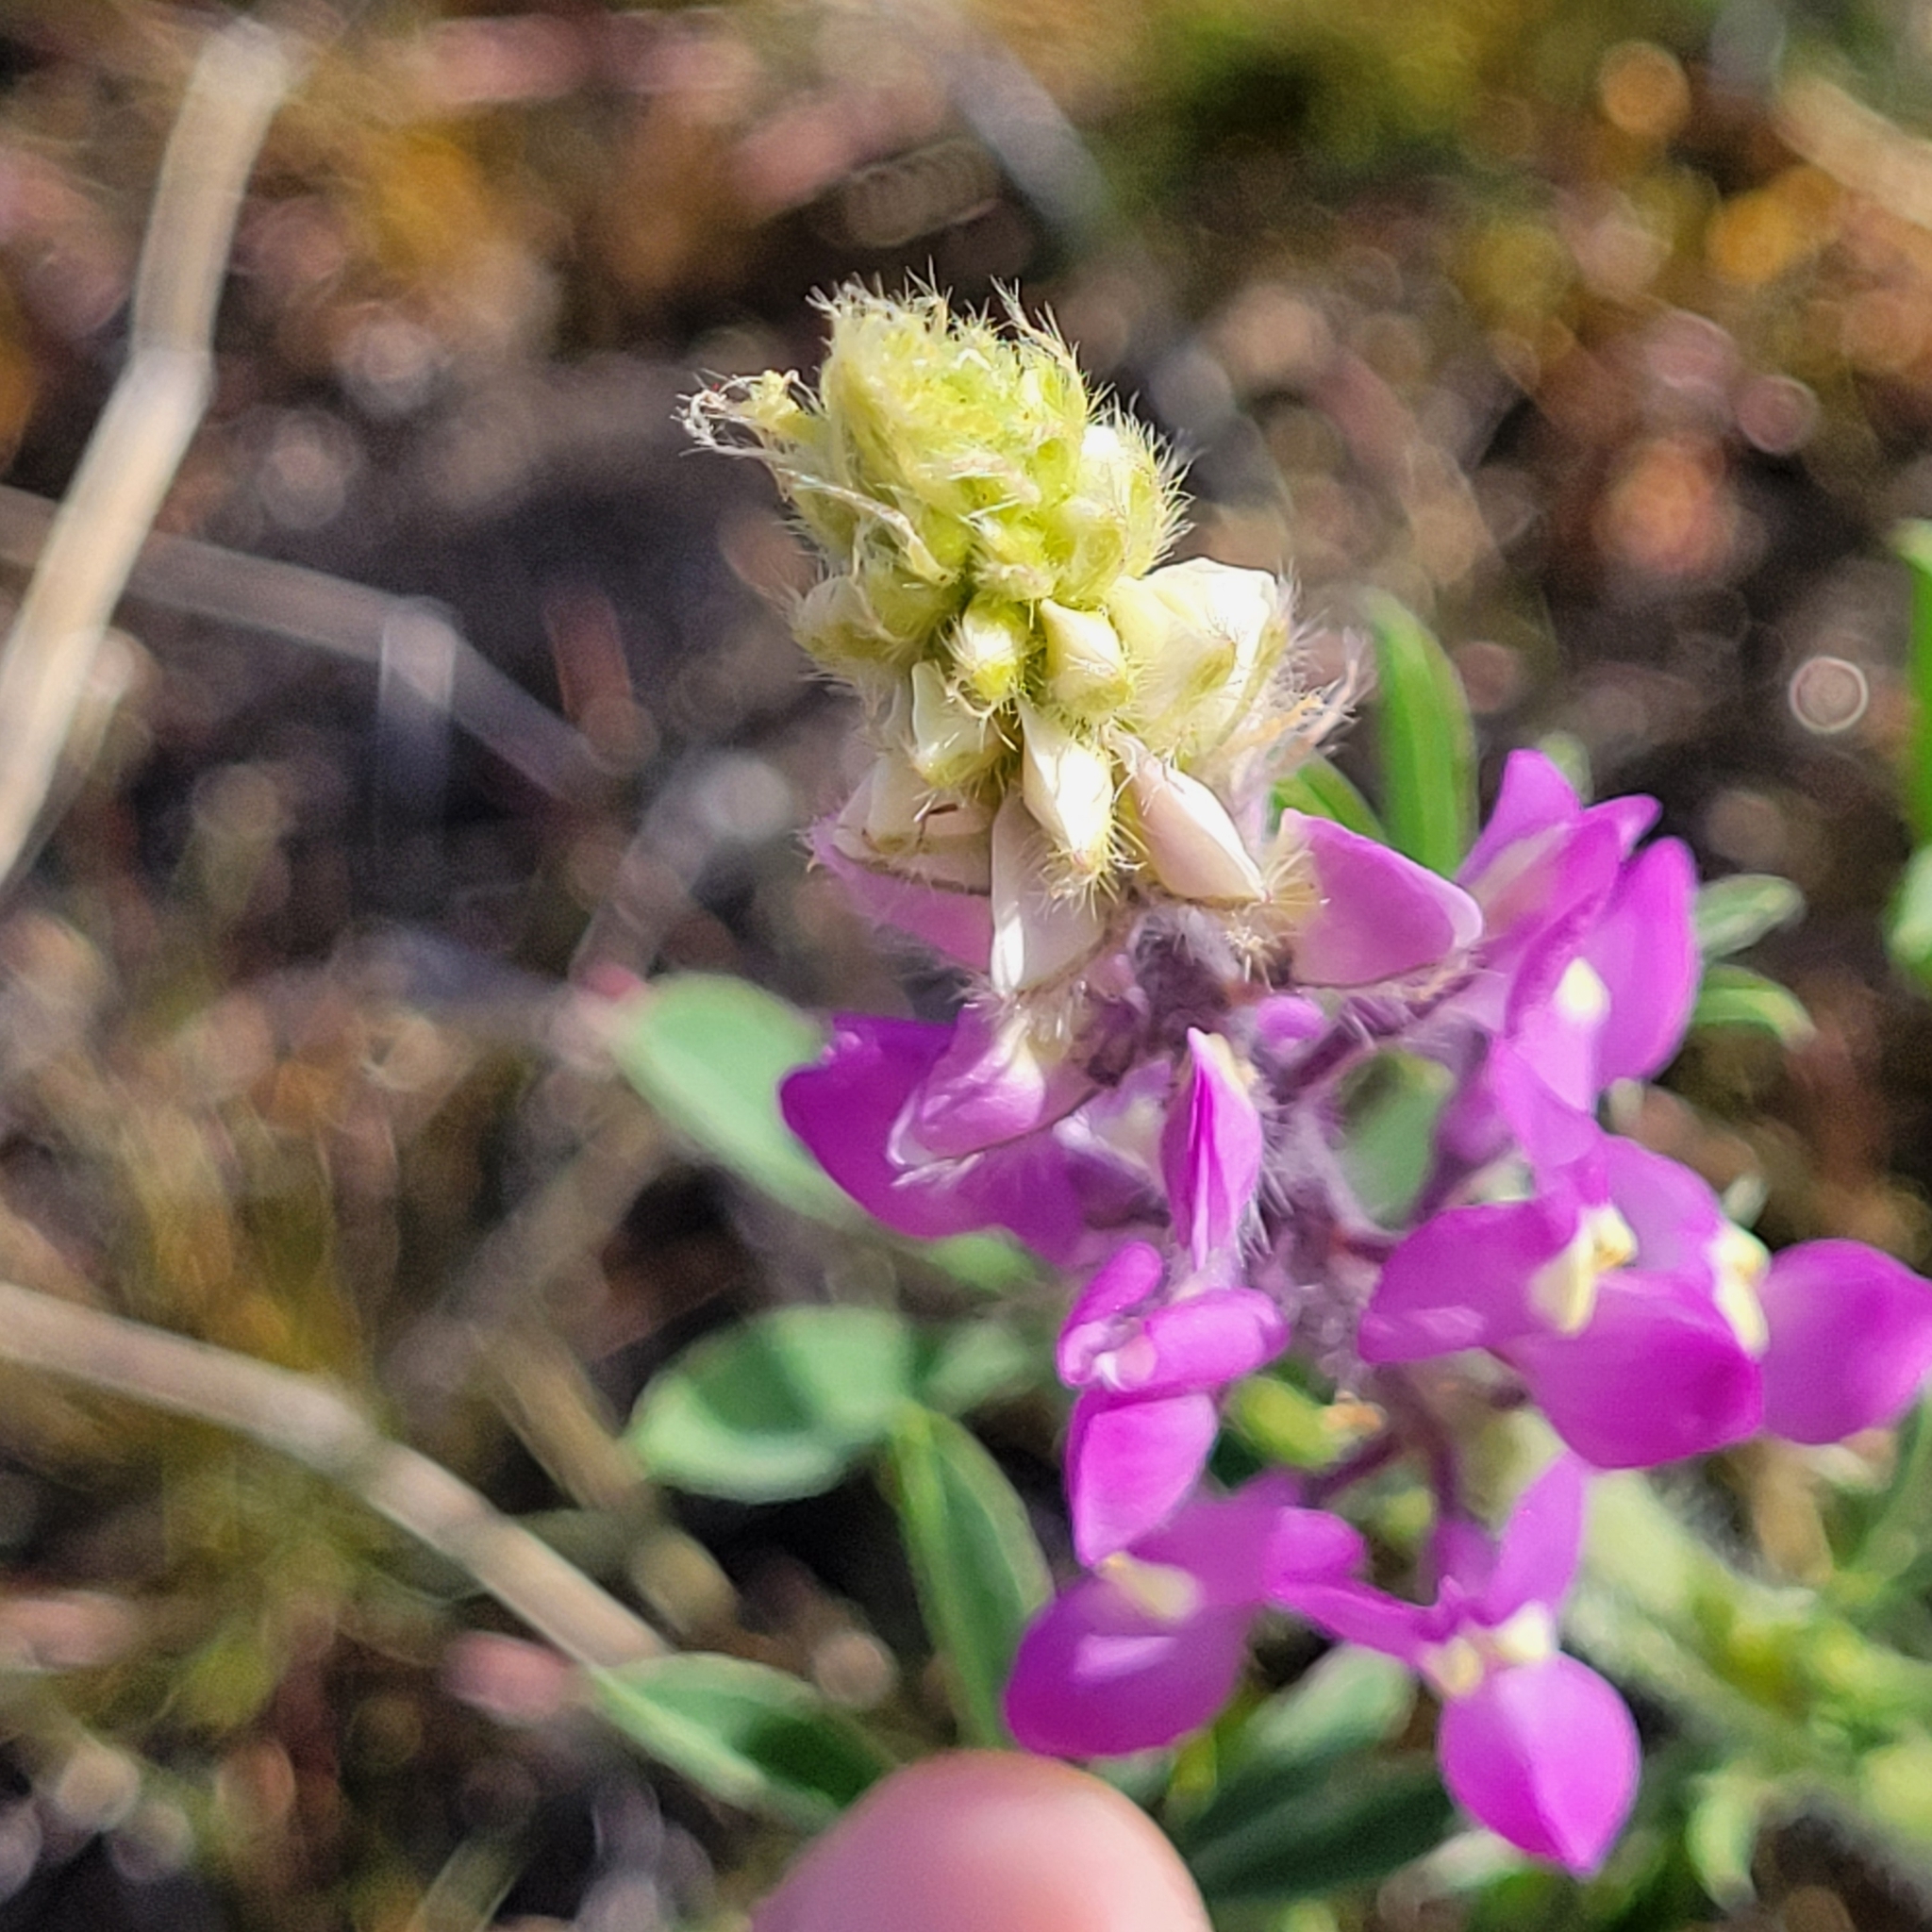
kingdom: Plantae
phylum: Tracheophyta
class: Magnoliopsida
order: Fabales
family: Fabaceae
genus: Lupinus
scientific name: Lupinus arizonicus
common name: Arizona lupine
